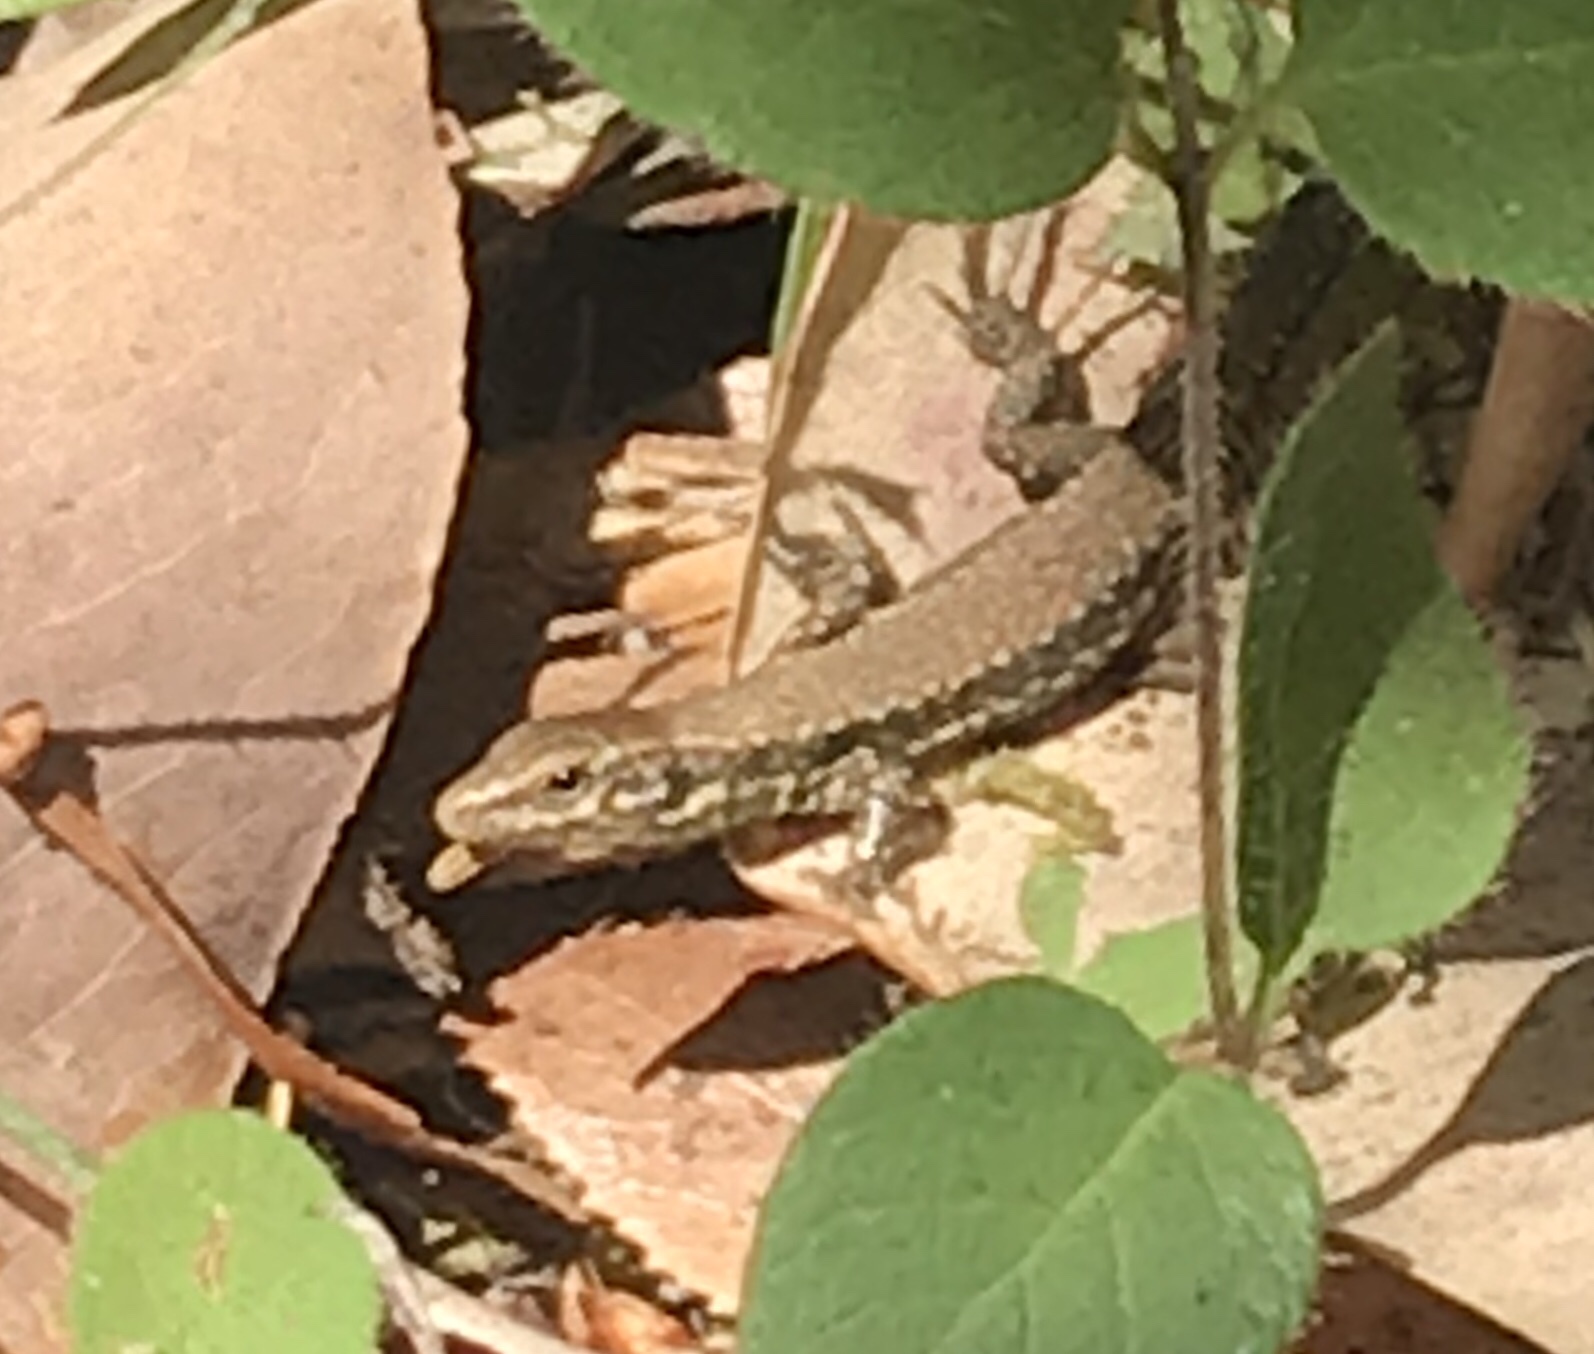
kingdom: Animalia
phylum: Chordata
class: Squamata
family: Lacertidae
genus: Podarcis
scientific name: Podarcis muralis
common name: Common wall lizard
